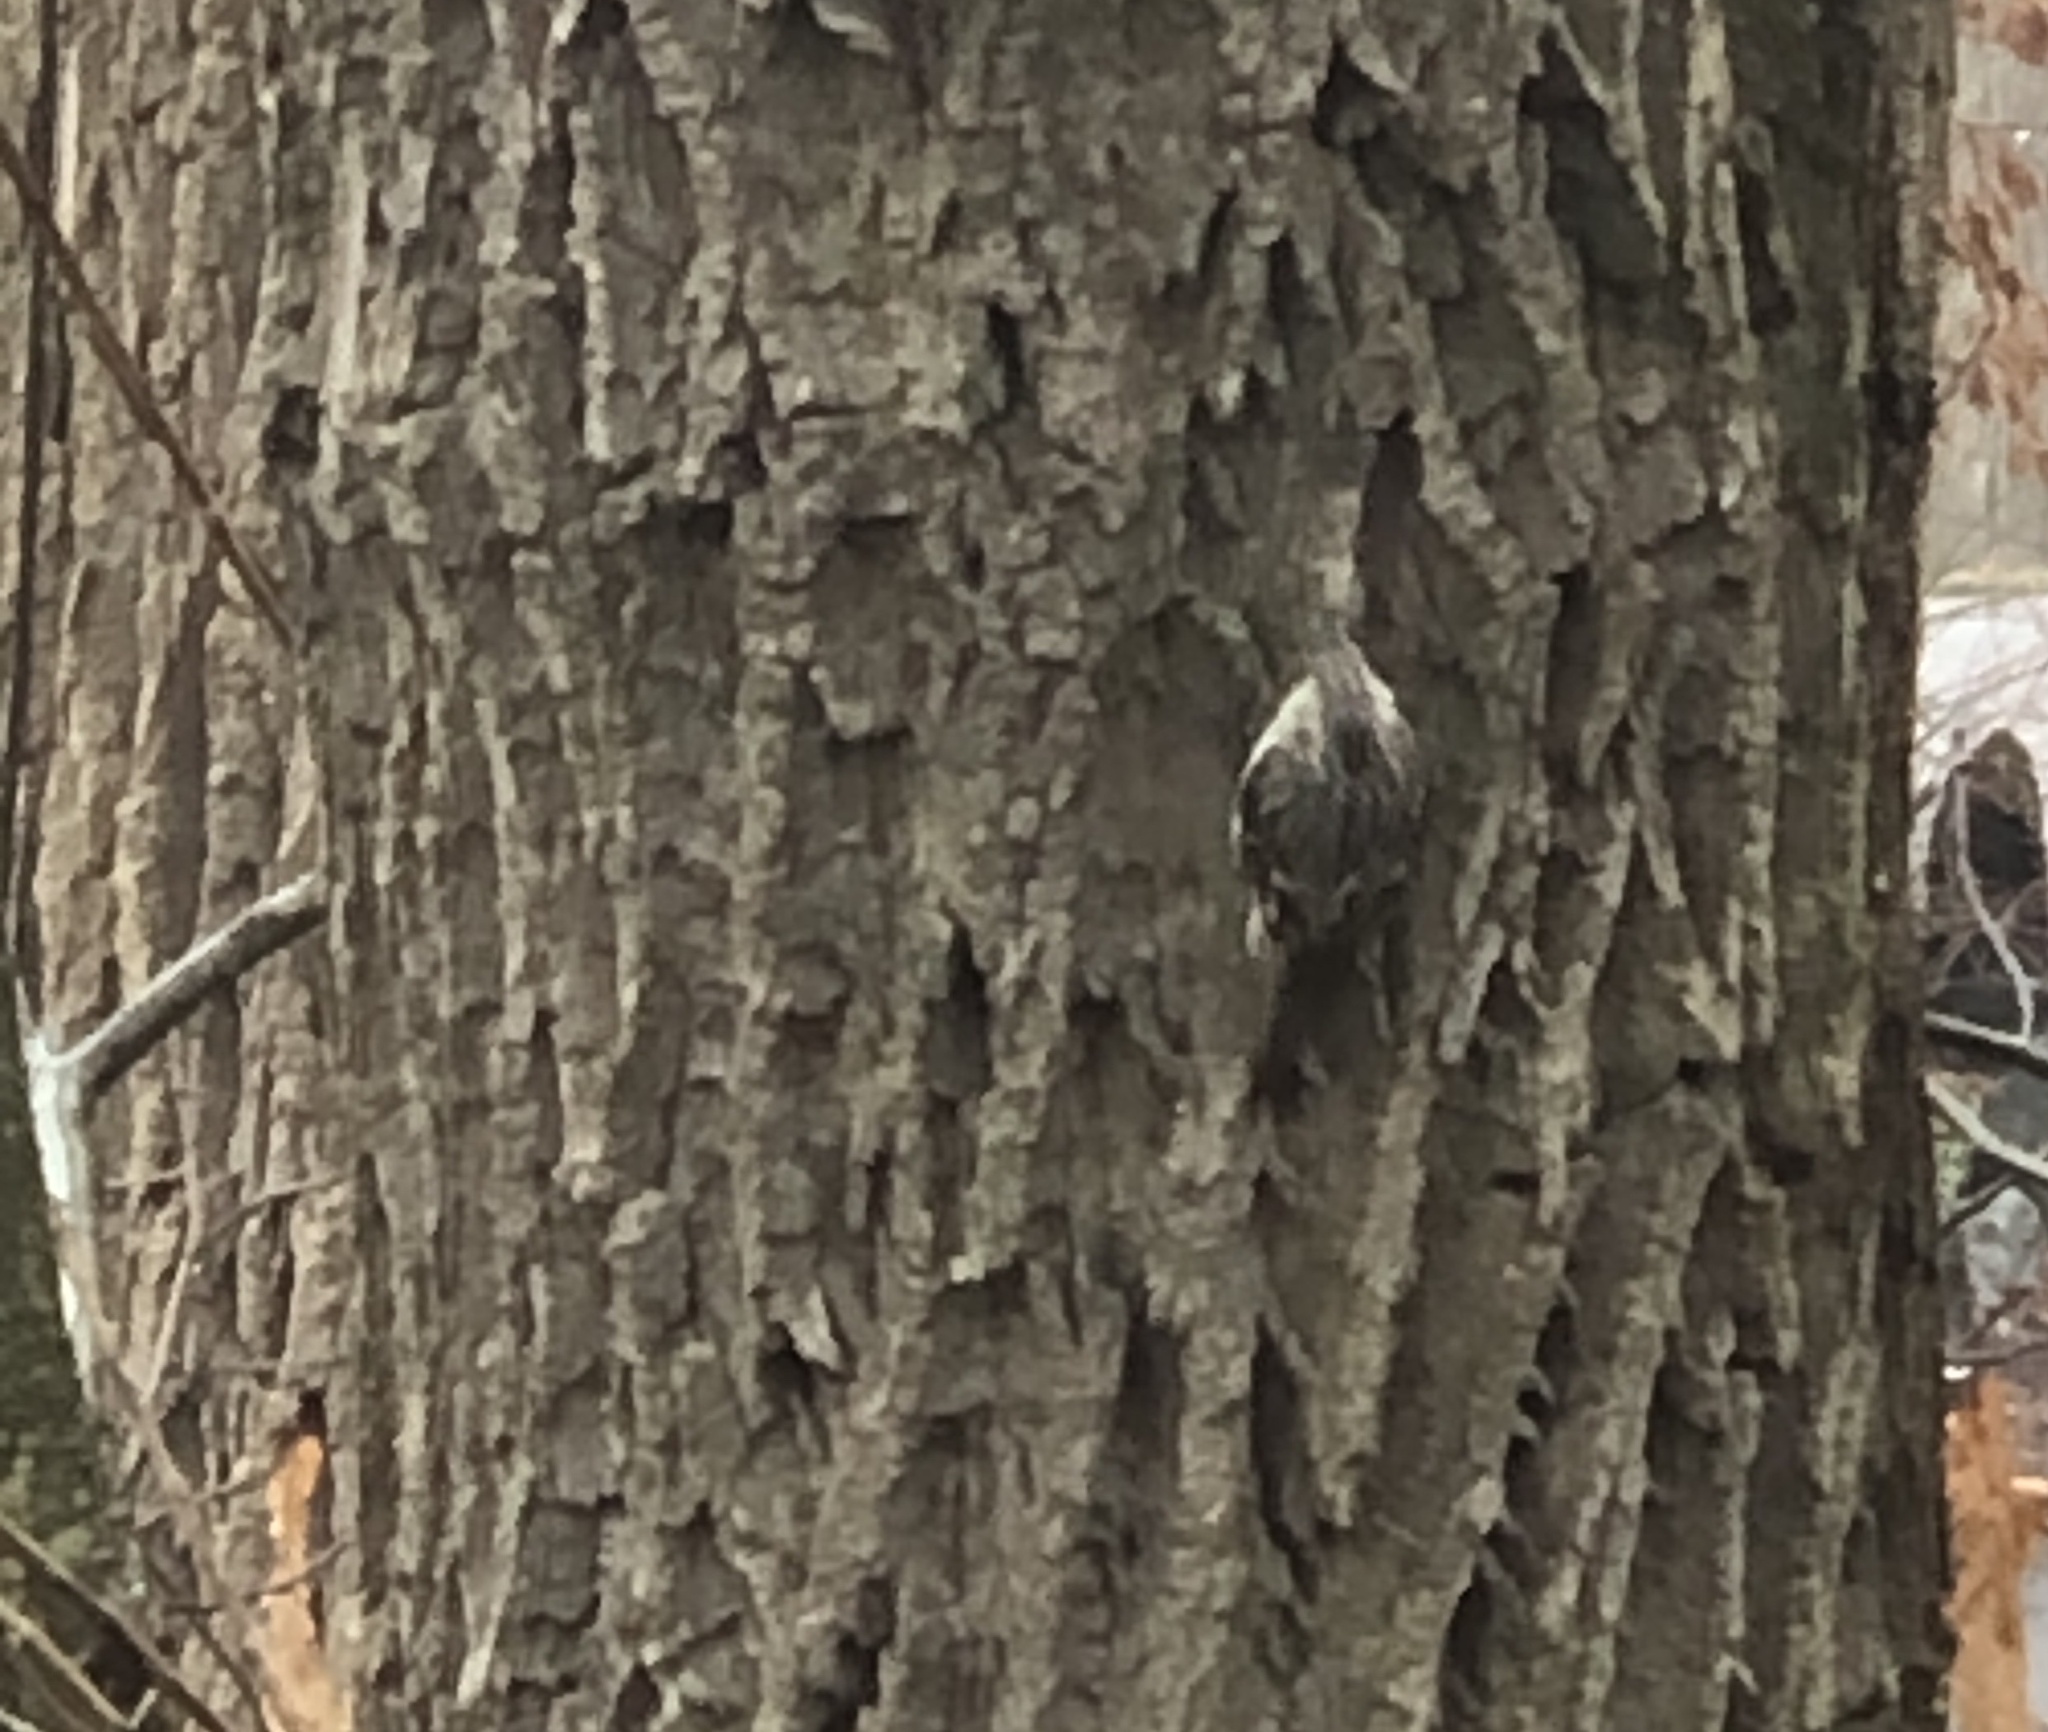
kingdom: Animalia
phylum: Chordata
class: Aves
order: Passeriformes
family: Certhiidae
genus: Certhia
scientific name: Certhia americana
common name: Brown creeper
